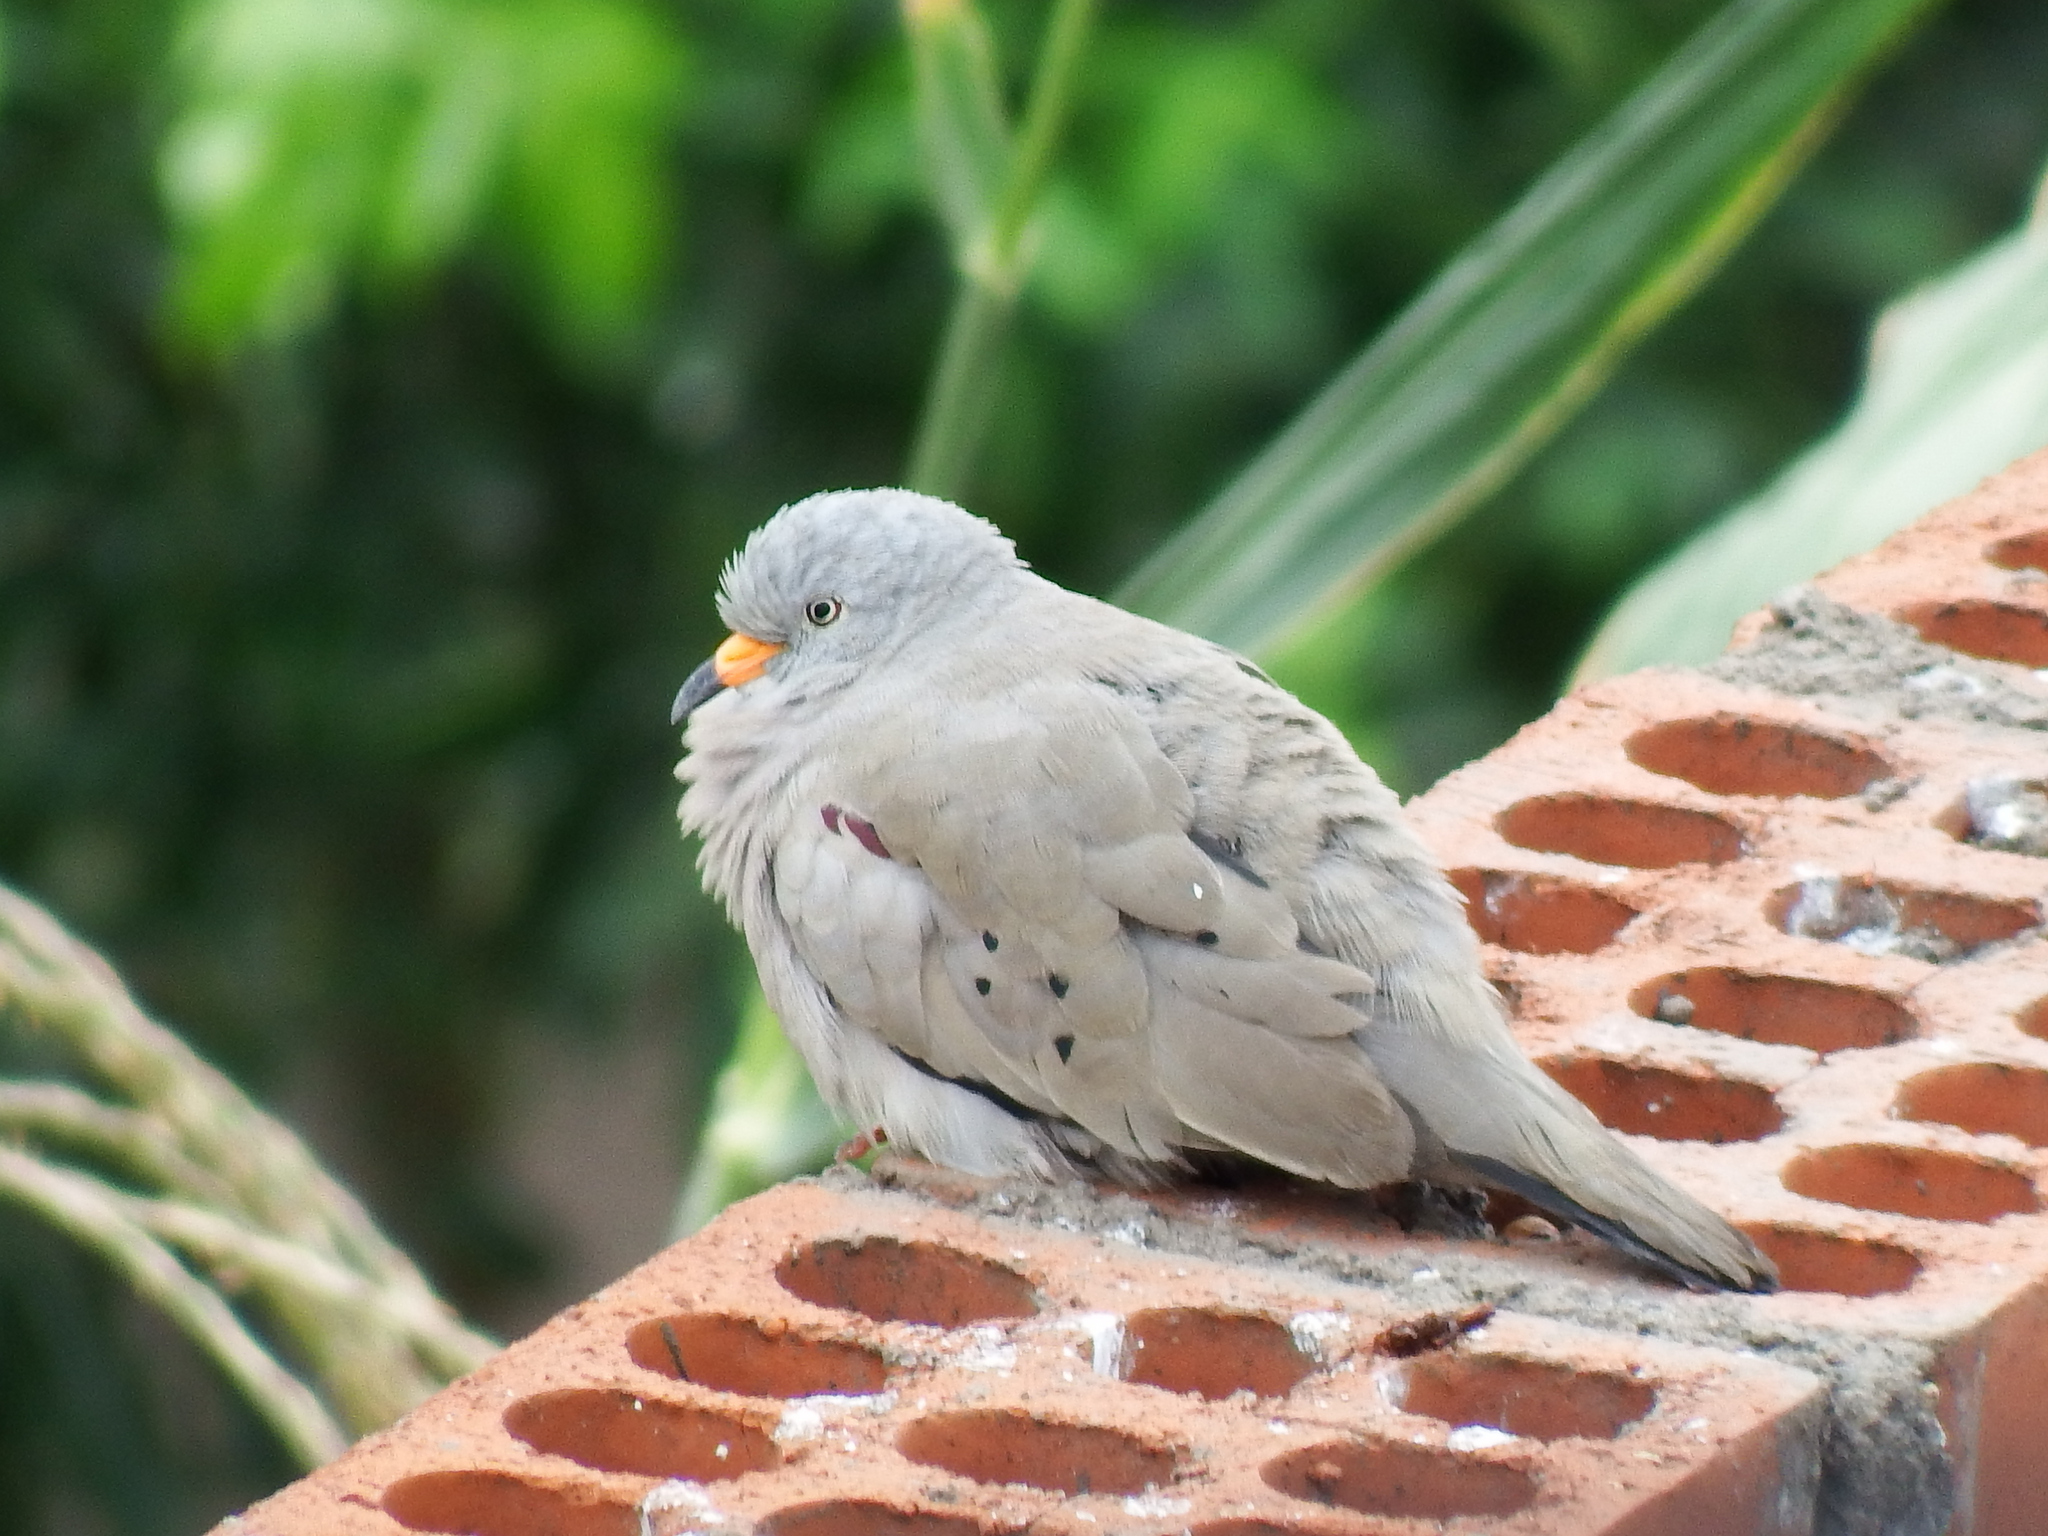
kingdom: Animalia
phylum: Chordata
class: Aves
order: Columbiformes
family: Columbidae
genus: Columbina
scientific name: Columbina cruziana
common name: Croaking ground dove
